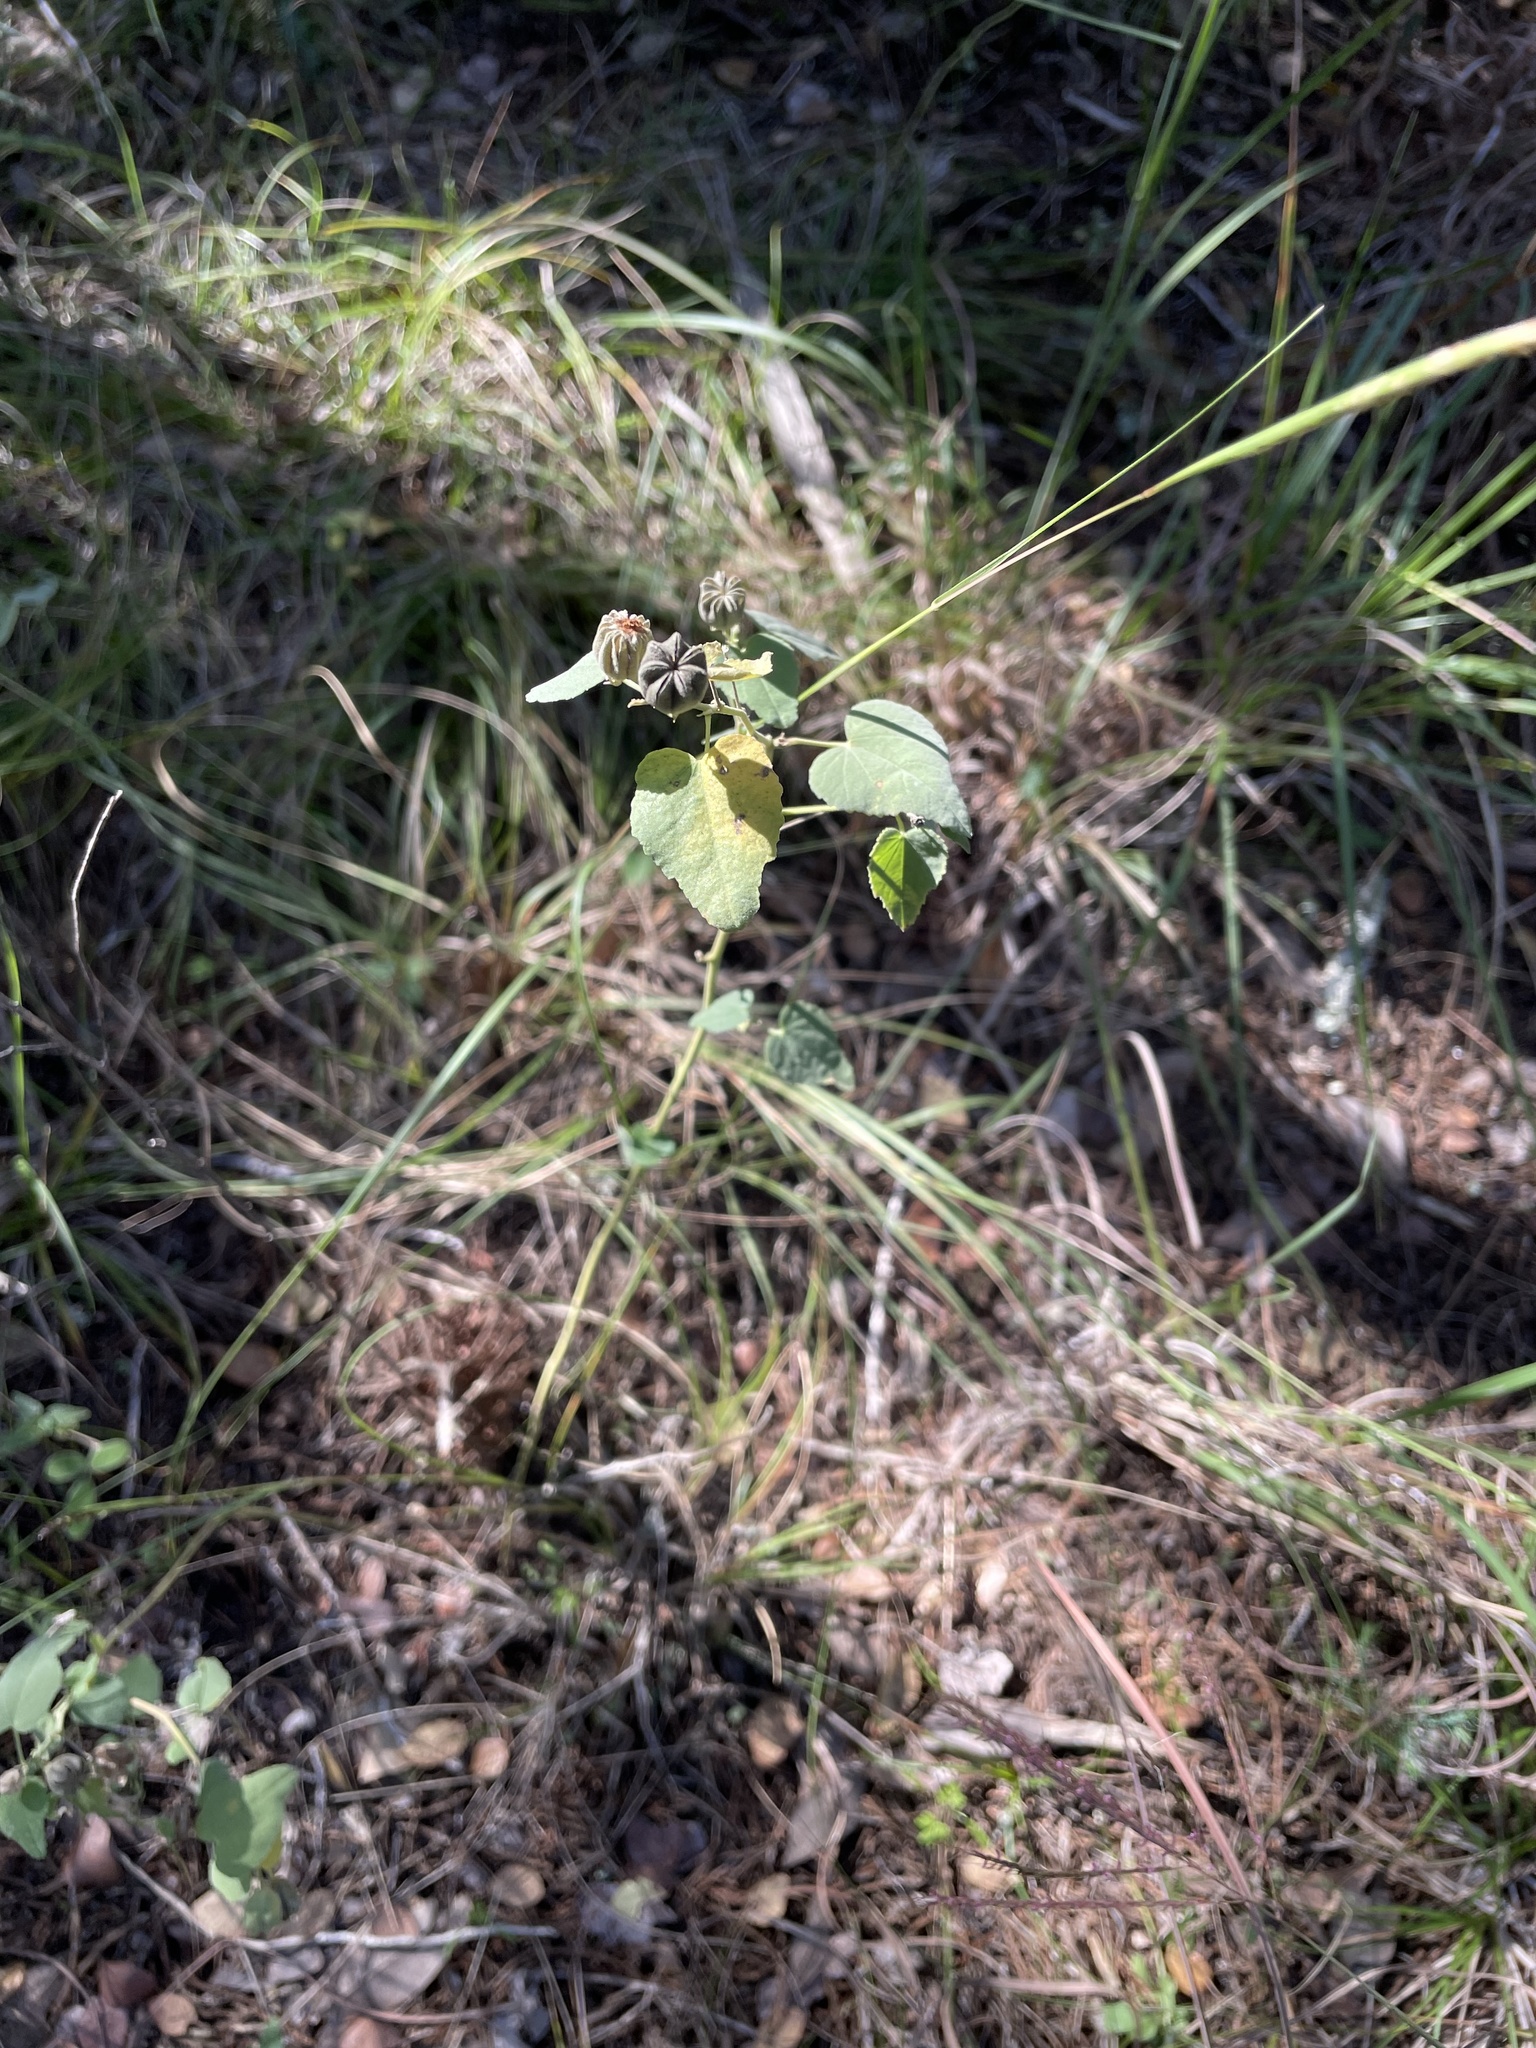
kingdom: Plantae
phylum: Tracheophyta
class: Magnoliopsida
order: Malvales
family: Malvaceae
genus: Abutilon
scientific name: Abutilon fruticosum
